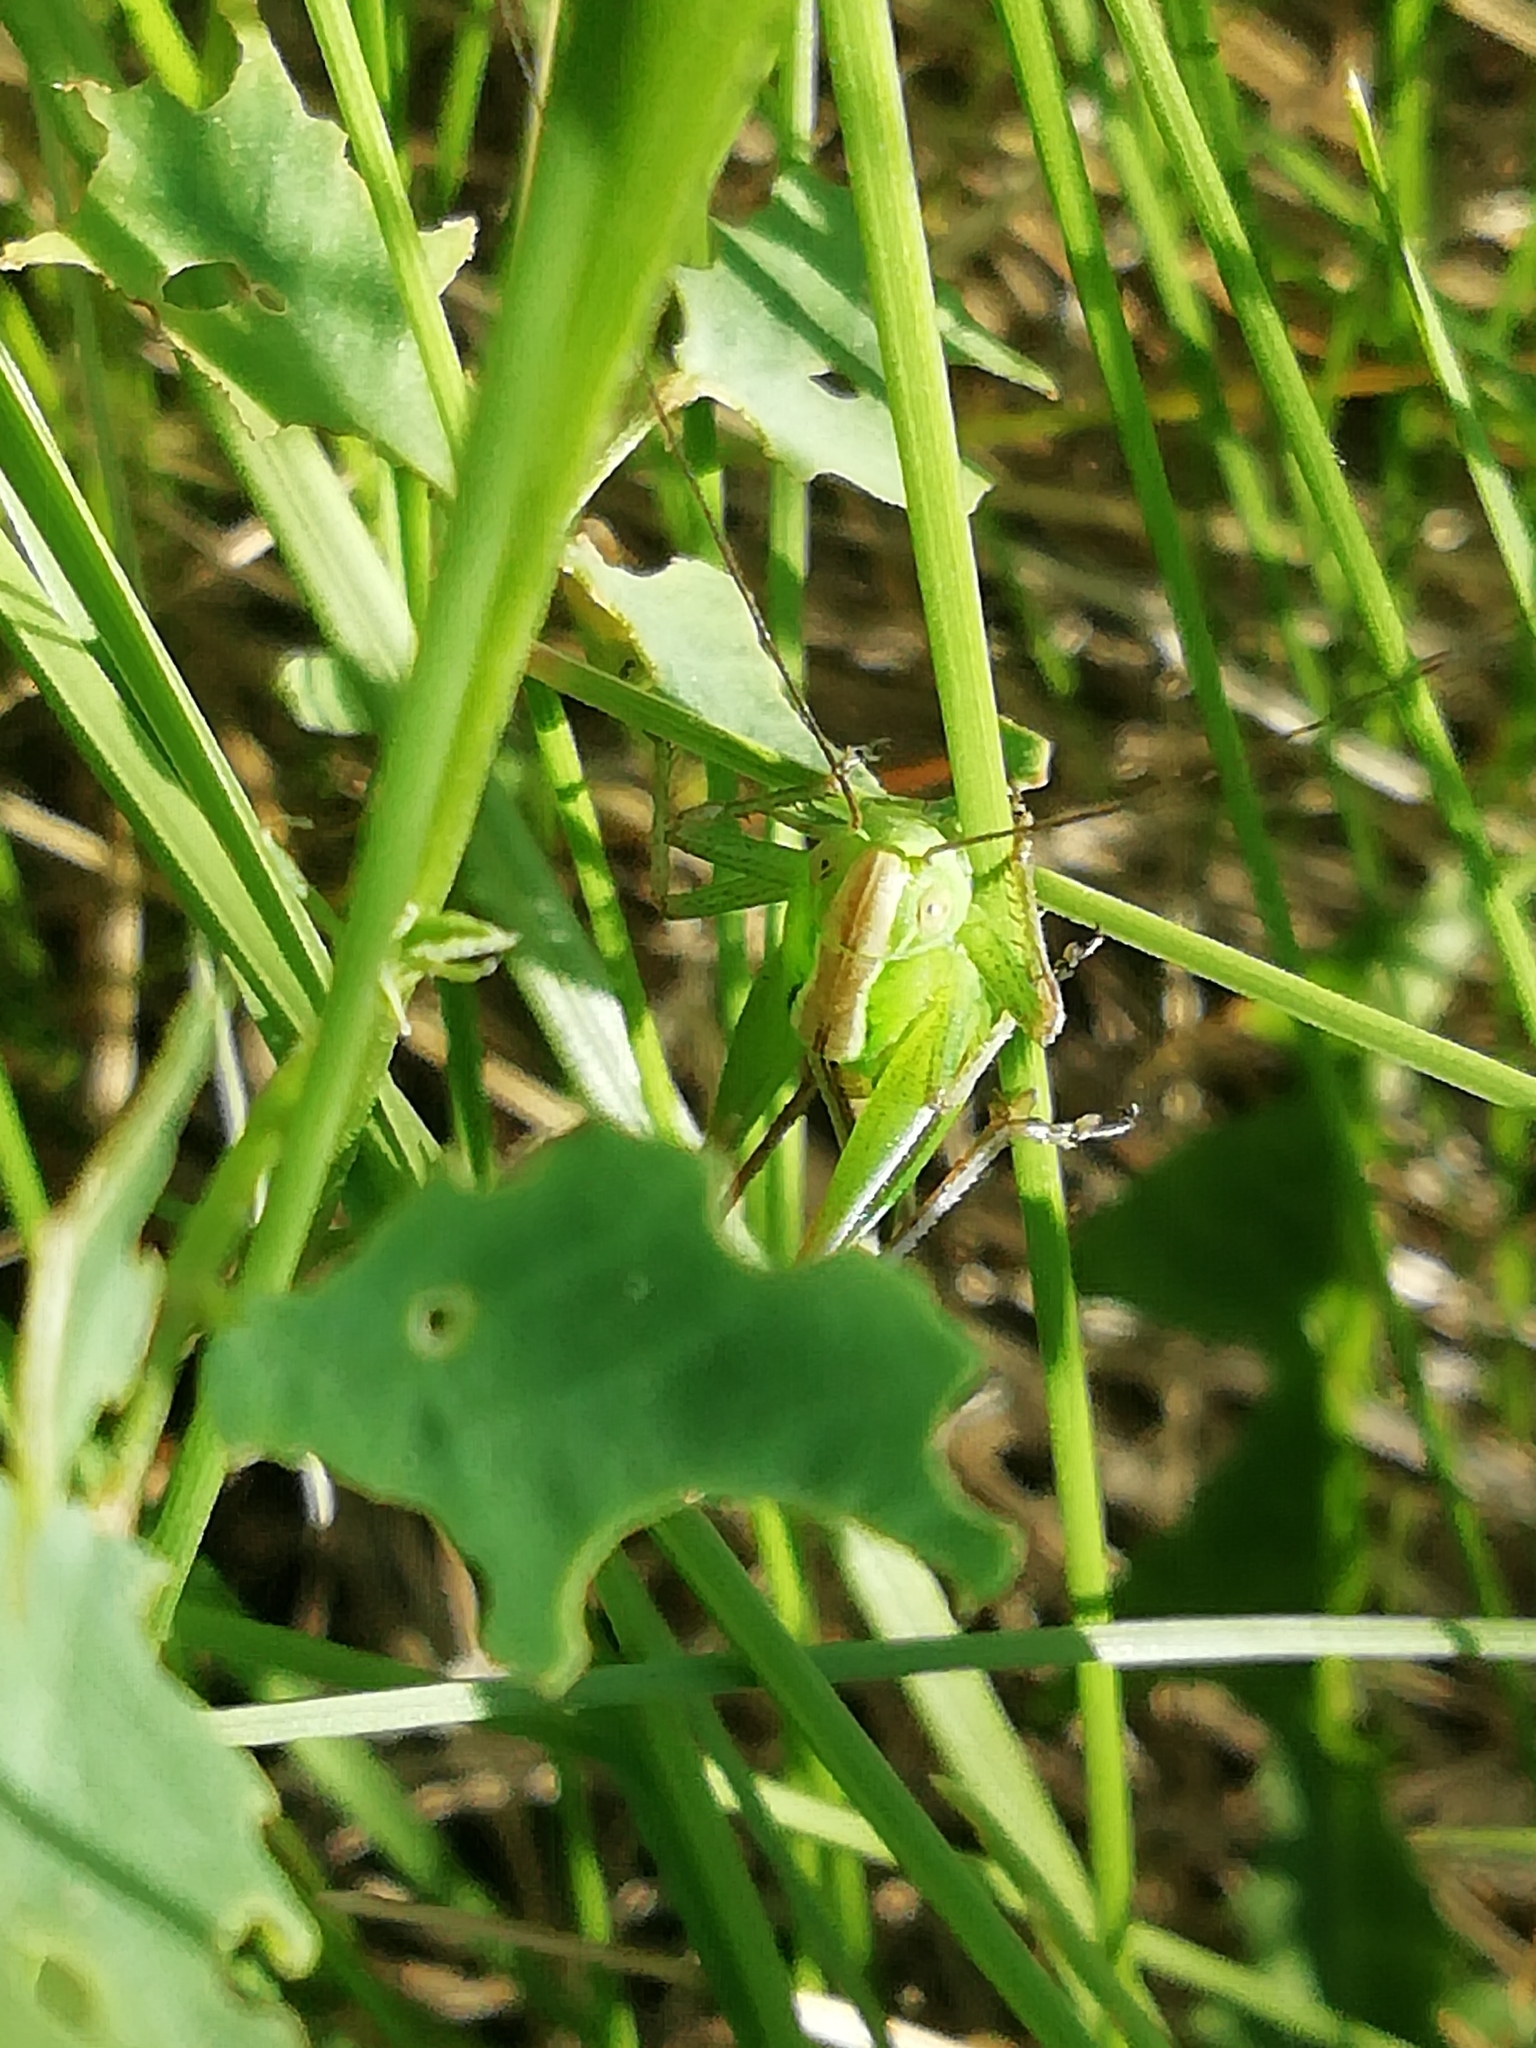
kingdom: Animalia
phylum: Arthropoda
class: Insecta
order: Orthoptera
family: Tettigoniidae
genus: Bicolorana
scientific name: Bicolorana bicolor
